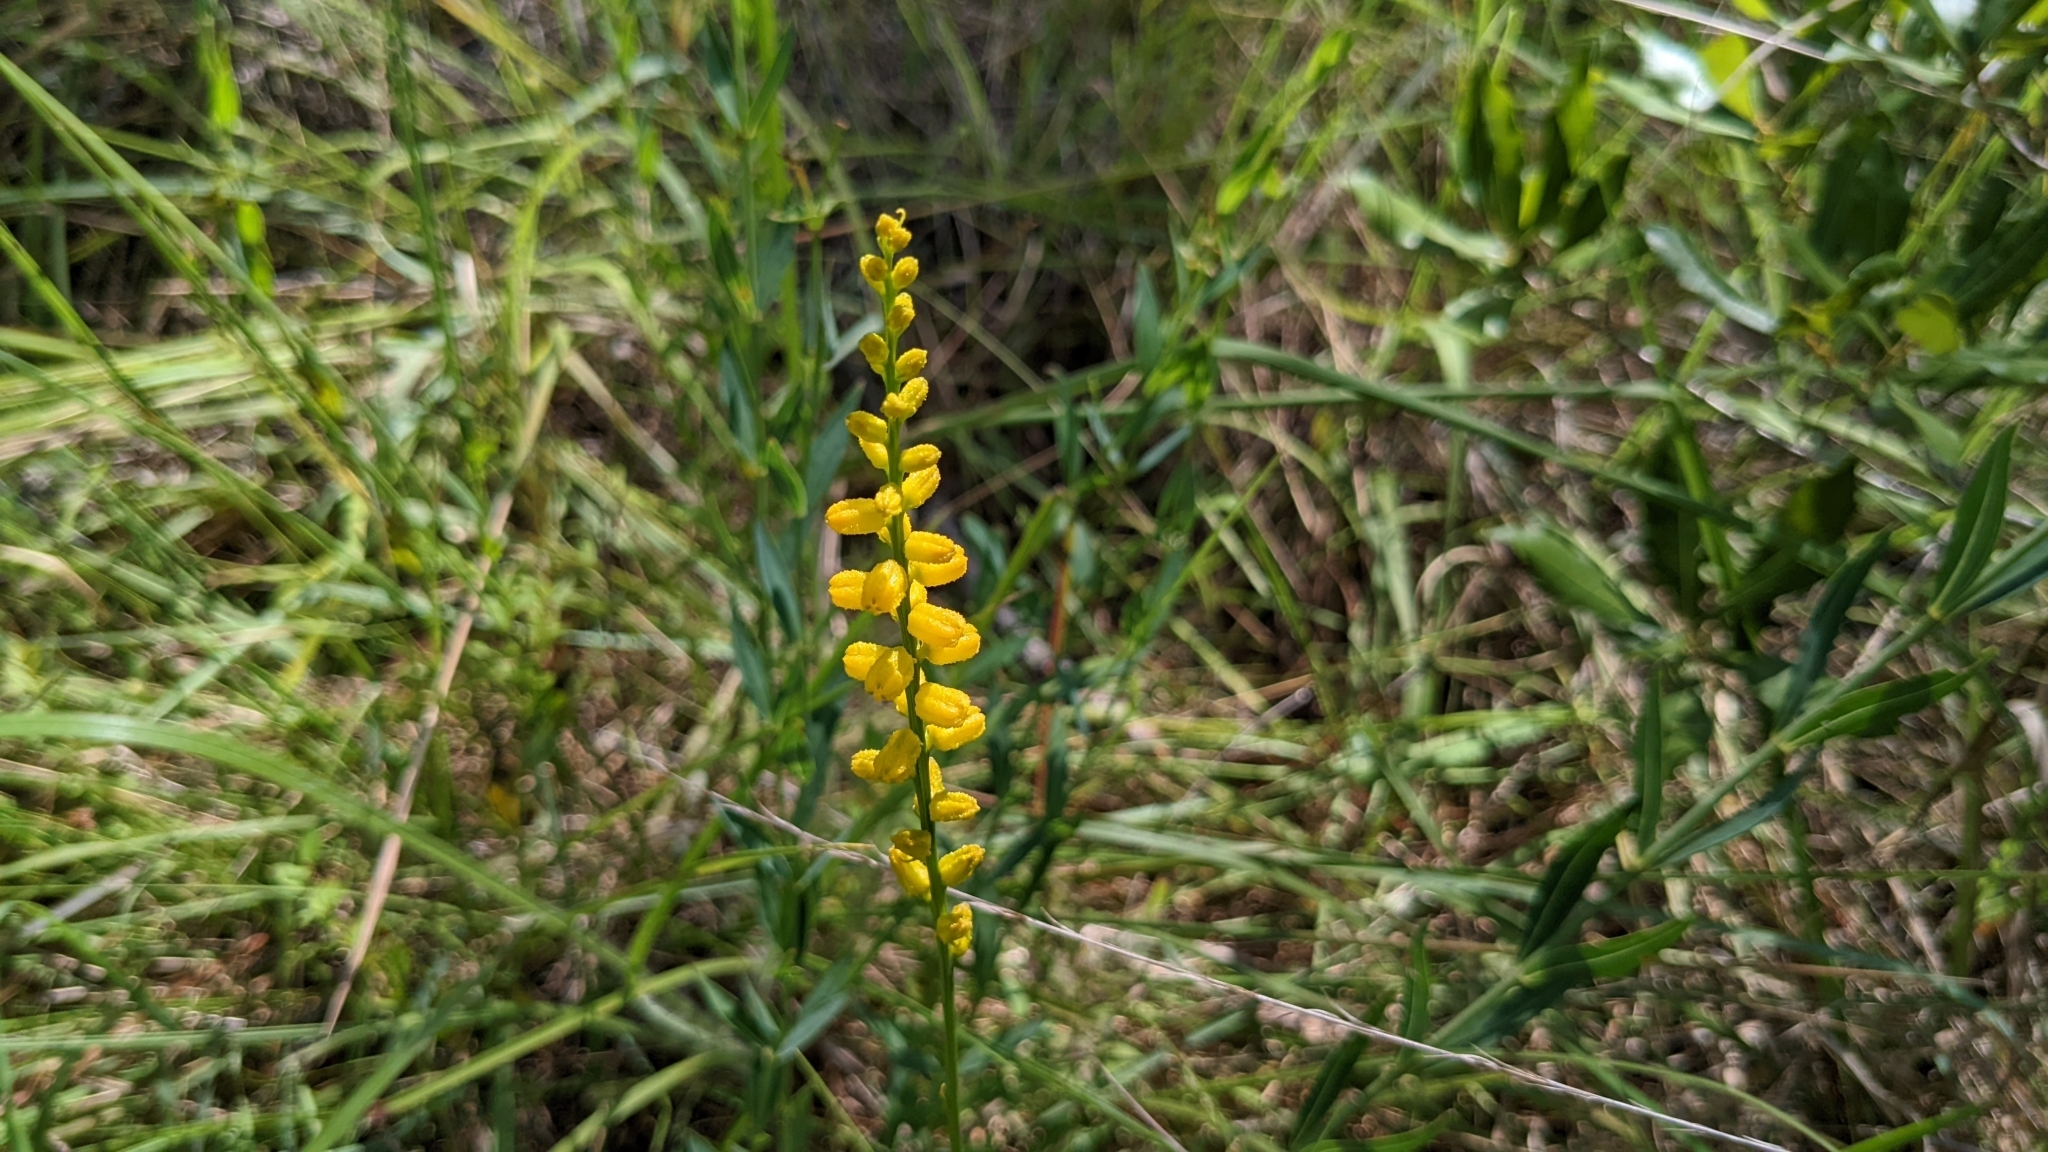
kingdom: Plantae
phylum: Tracheophyta
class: Liliopsida
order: Dioscoreales
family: Nartheciaceae
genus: Aletris
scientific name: Aletris aurea
